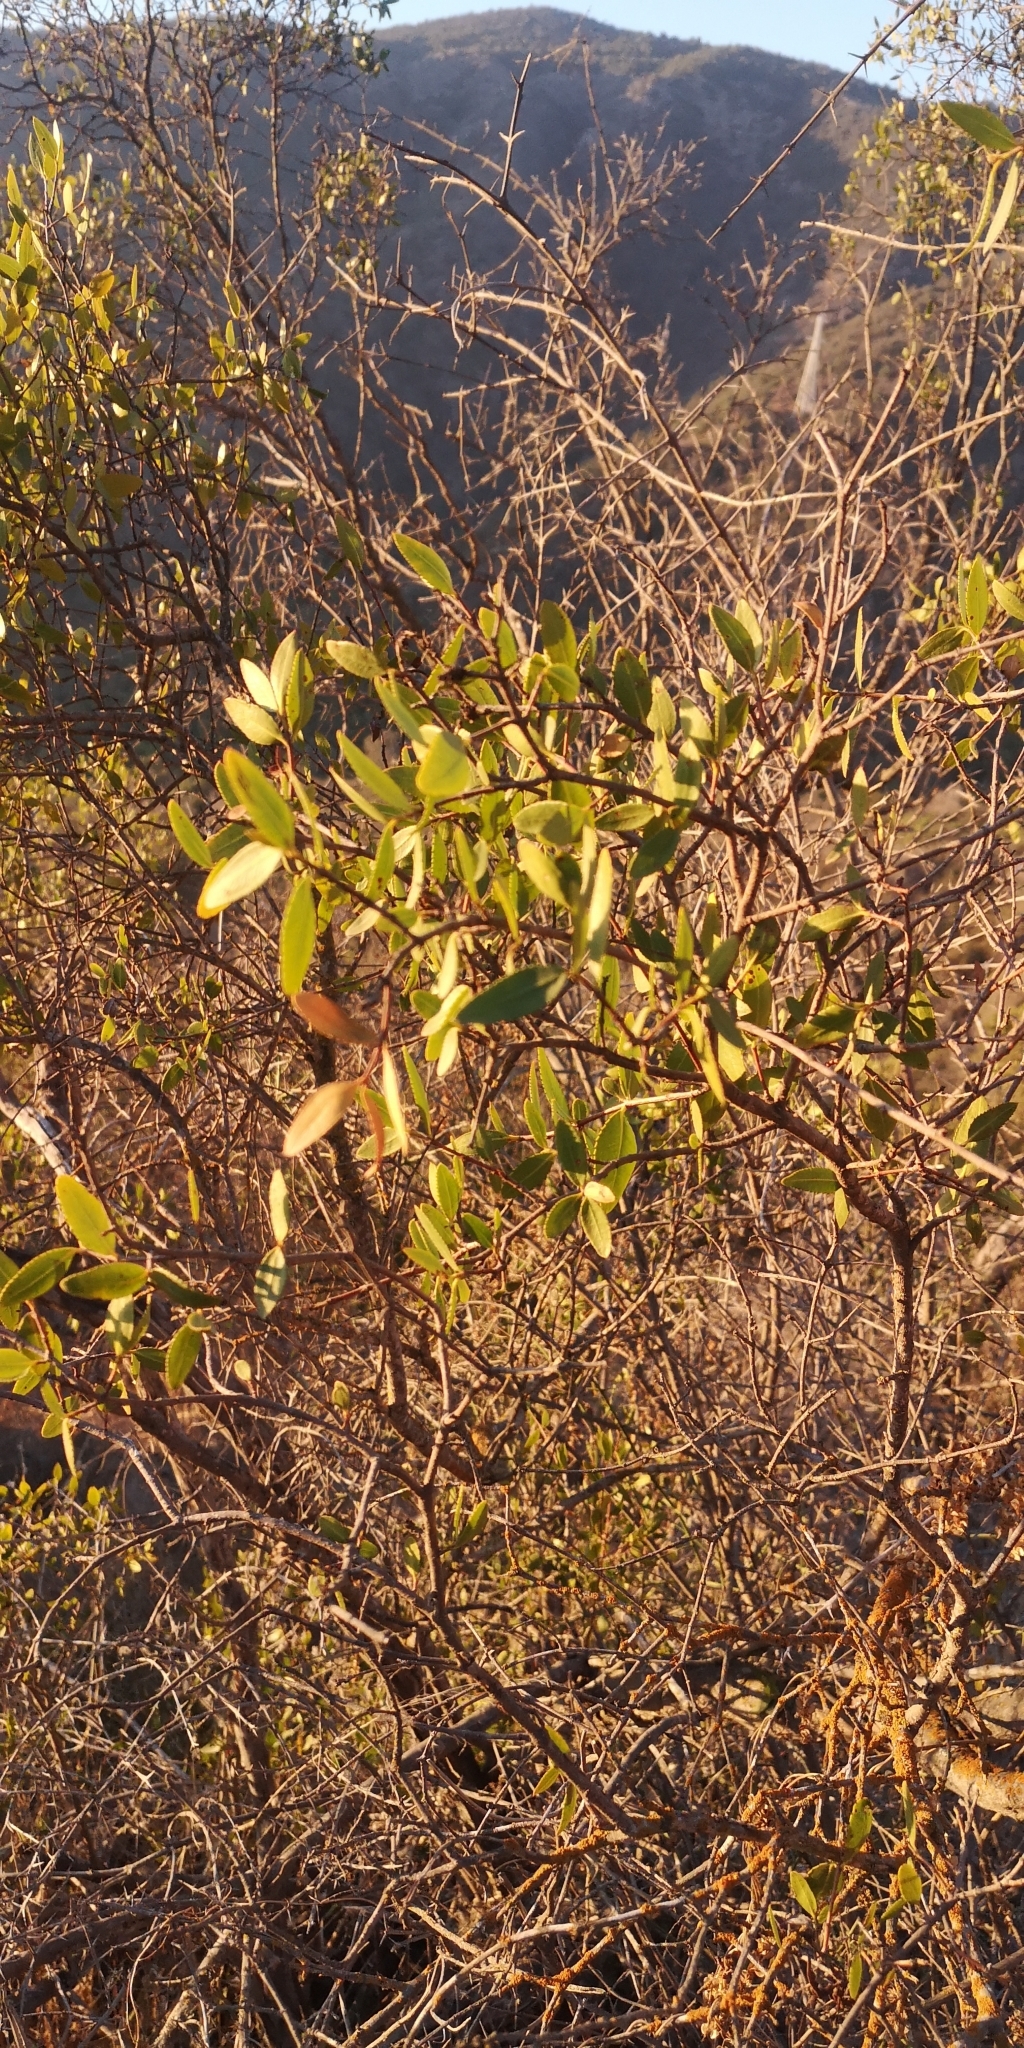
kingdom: Plantae
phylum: Tracheophyta
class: Magnoliopsida
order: Malpighiales
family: Euphorbiaceae
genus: Colliguaja
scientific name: Colliguaja odorifera
